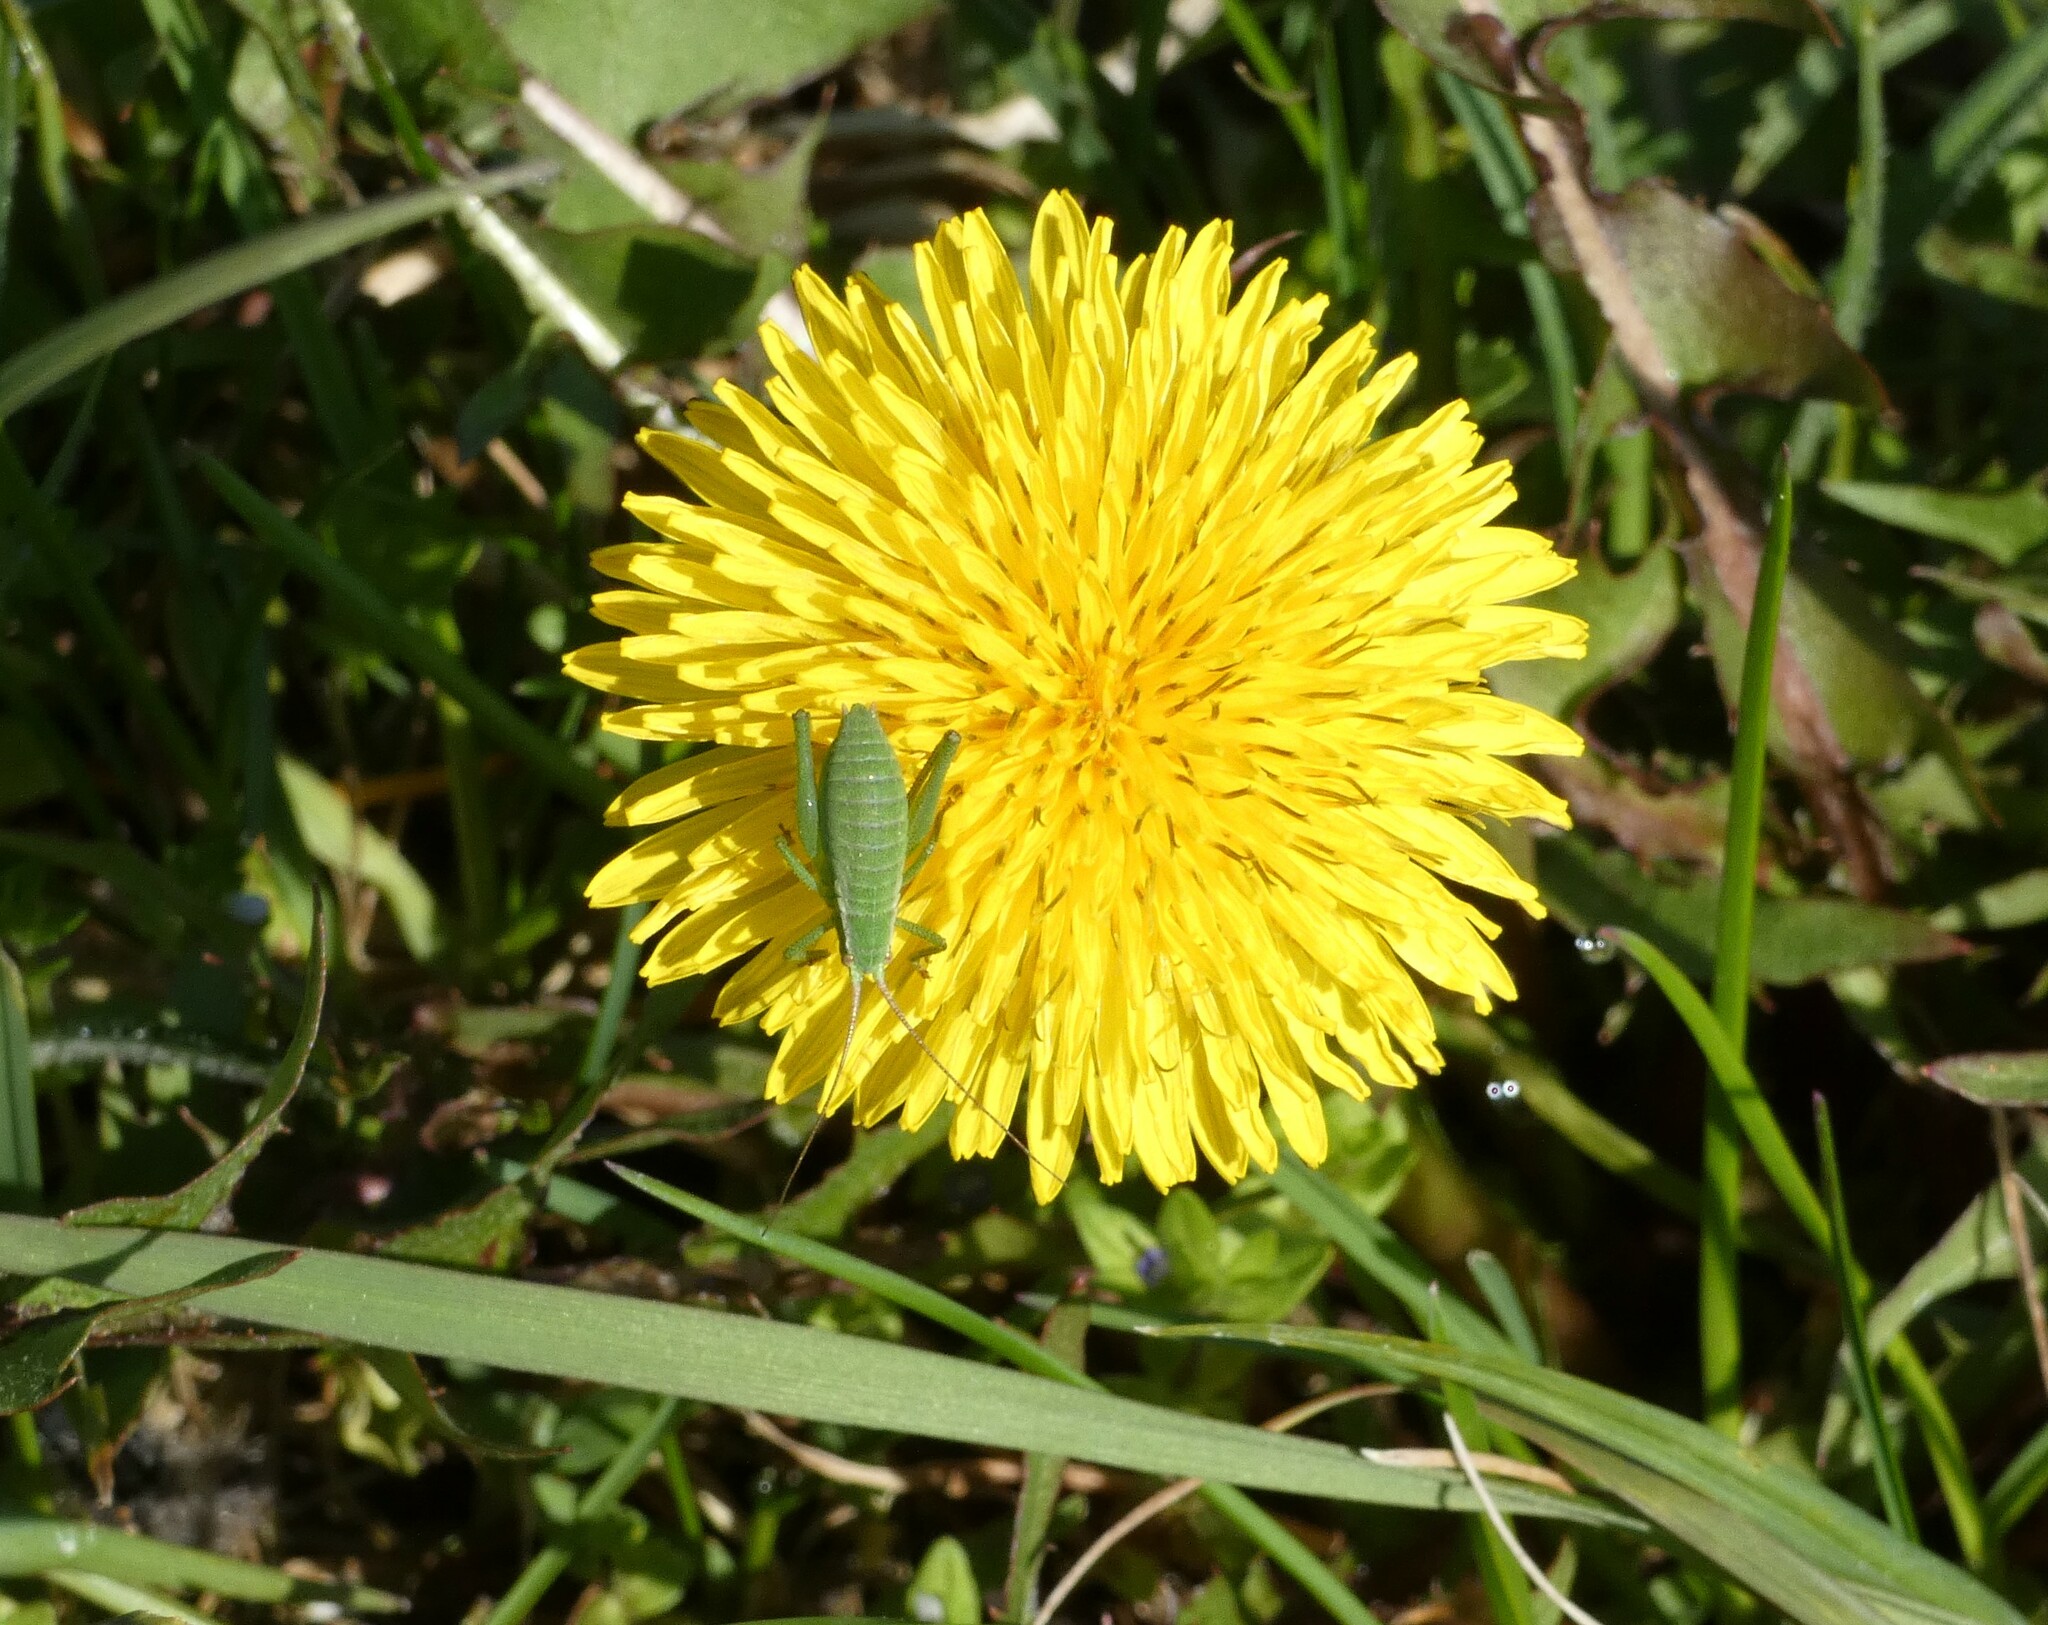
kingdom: Animalia
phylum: Arthropoda
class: Insecta
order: Orthoptera
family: Tettigoniidae
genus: Isophya
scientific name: Isophya camptoxypha
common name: Curve-tailed plump bush-cricket
